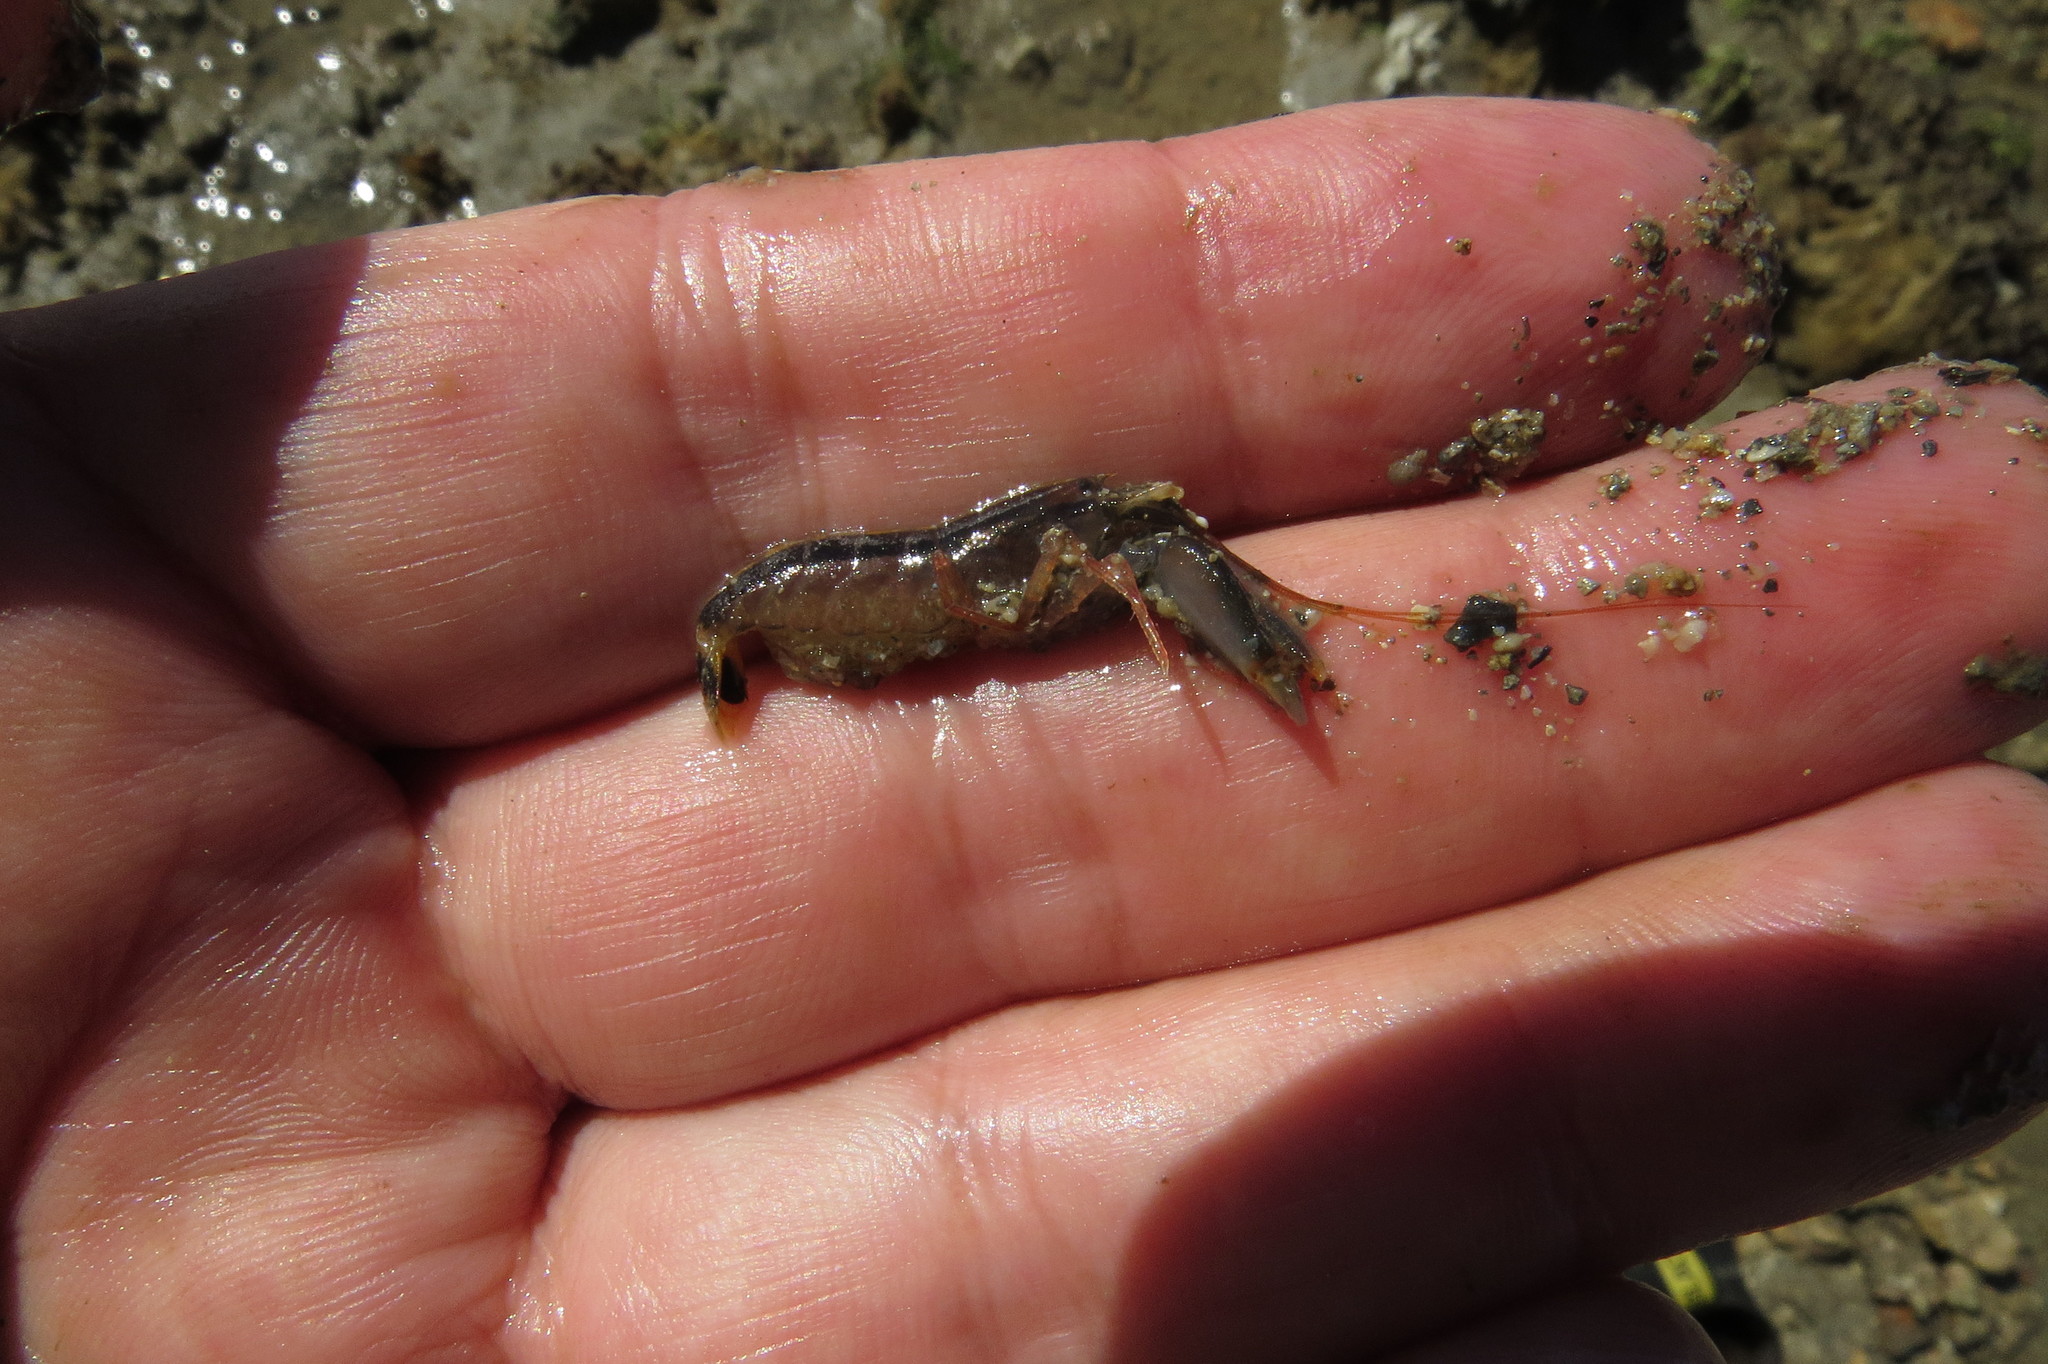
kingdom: Animalia
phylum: Arthropoda
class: Malacostraca
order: Decapoda
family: Alpheidae
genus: Alpheus
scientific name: Alpheus splendidus
